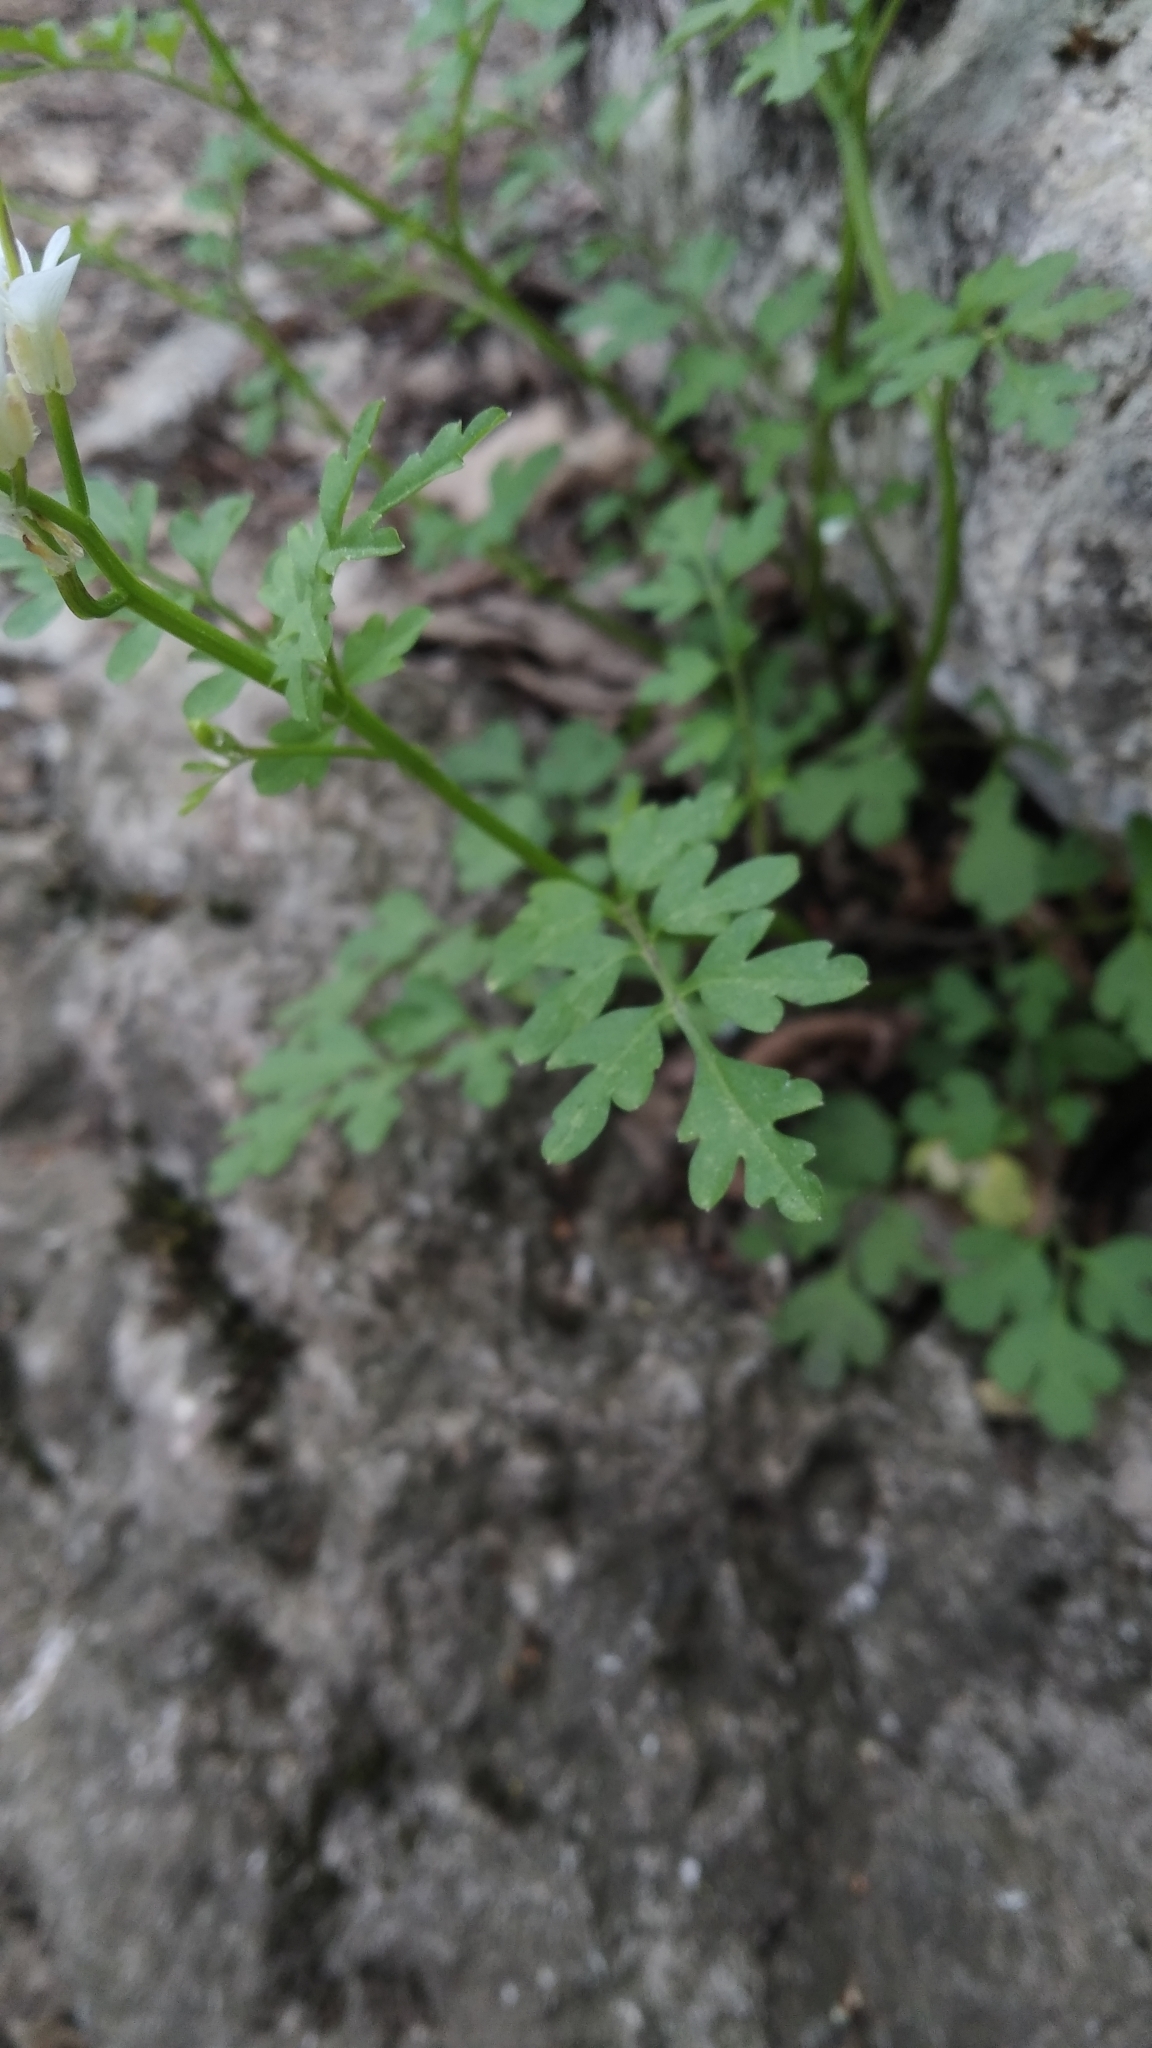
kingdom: Plantae
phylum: Tracheophyta
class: Magnoliopsida
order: Brassicales
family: Brassicaceae
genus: Cardamine
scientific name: Cardamine graeca
